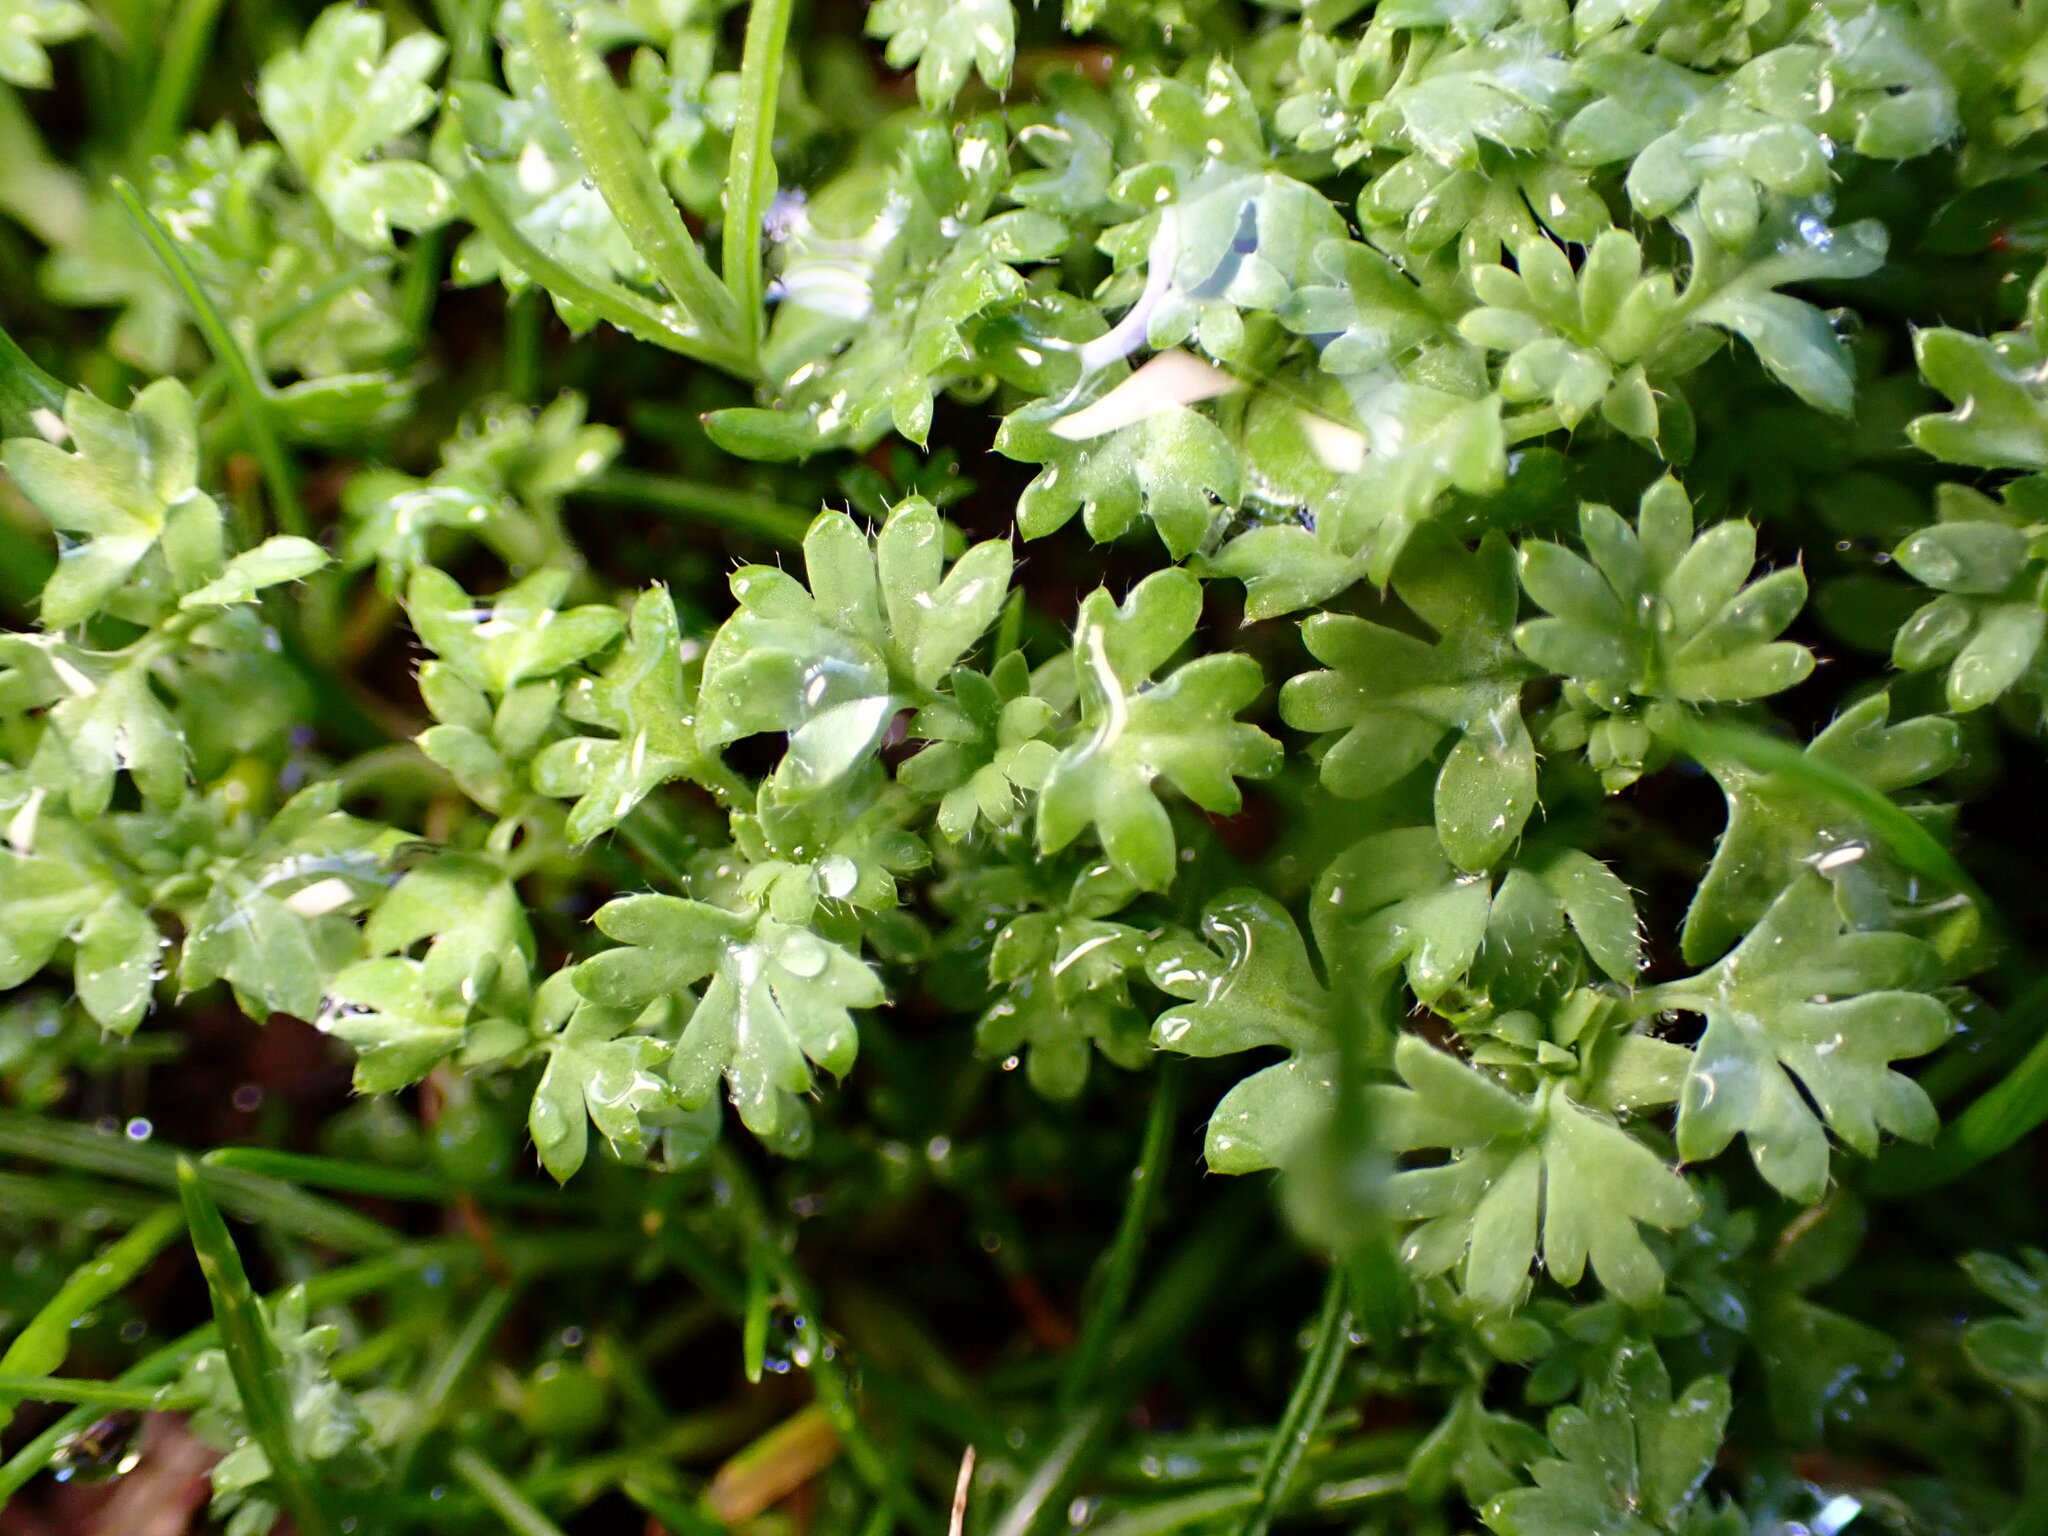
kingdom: Plantae
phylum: Tracheophyta
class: Magnoliopsida
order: Rosales
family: Rosaceae
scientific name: Rosaceae
